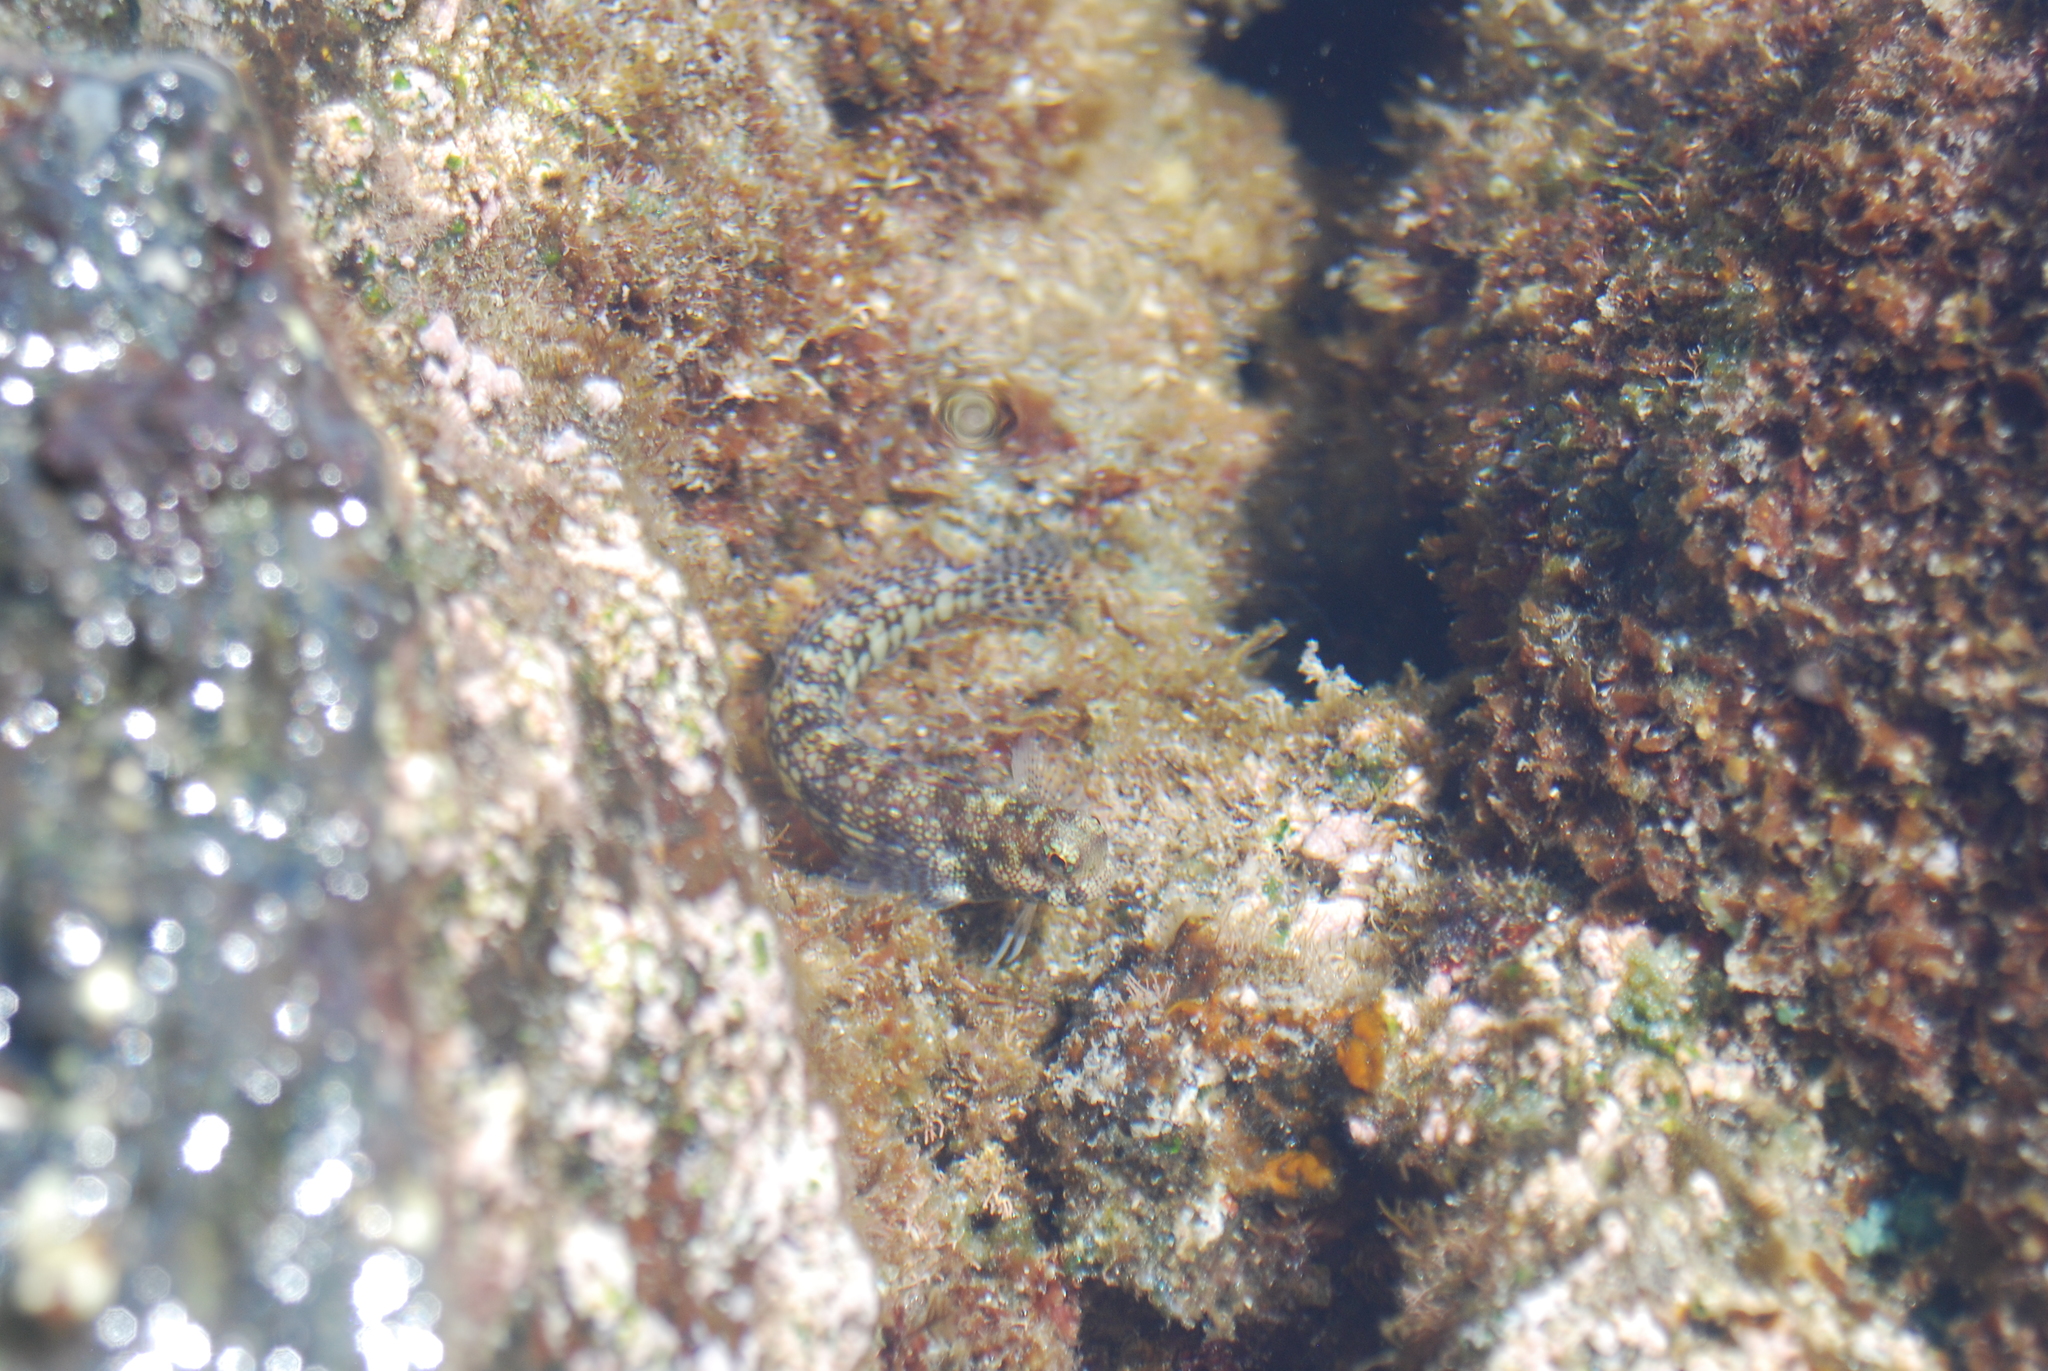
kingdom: Animalia
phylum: Chordata
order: Perciformes
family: Blenniidae
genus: Blenniella
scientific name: Blenniella gibbifrons
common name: Picture rockskipper
